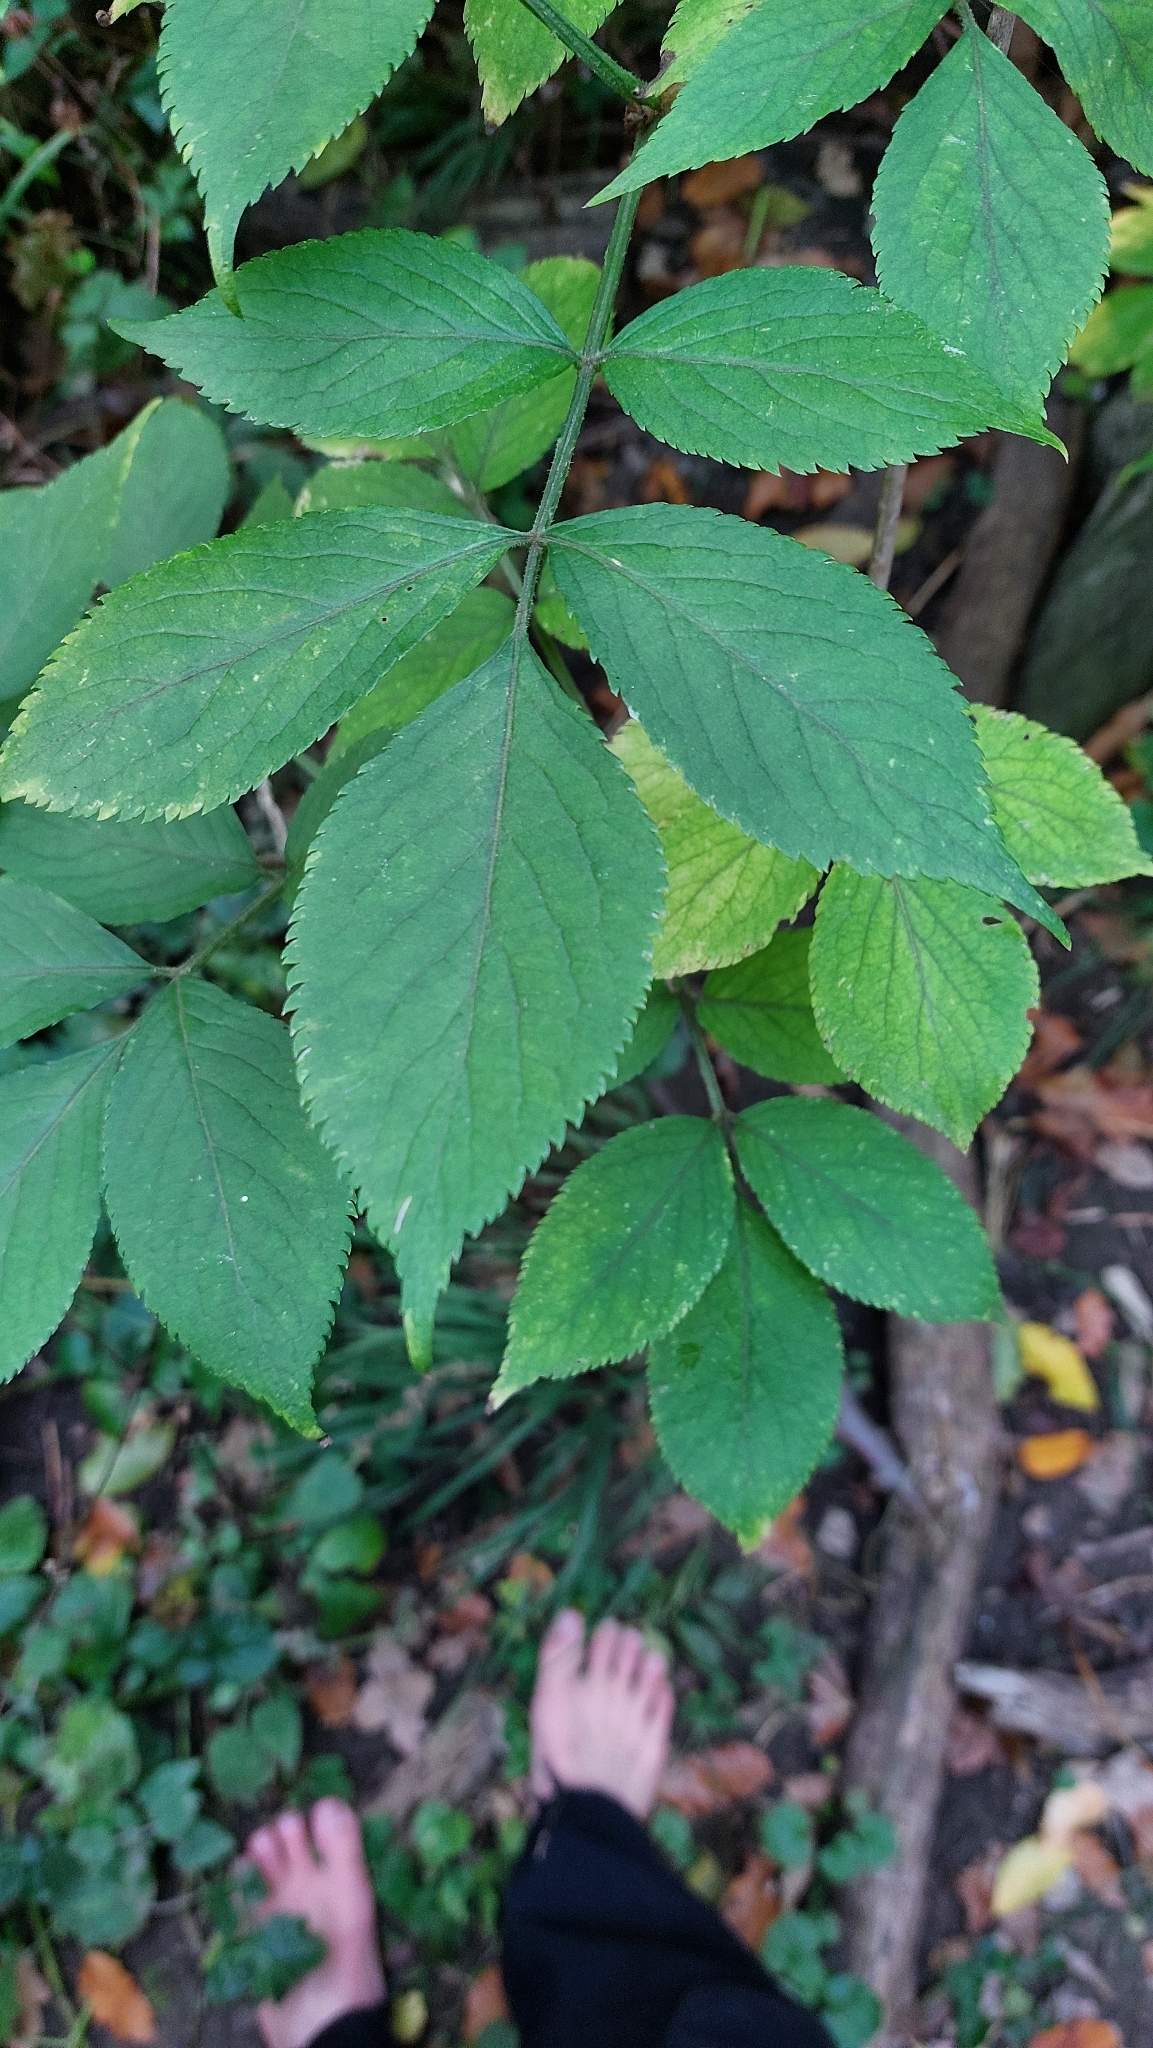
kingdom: Plantae
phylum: Tracheophyta
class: Magnoliopsida
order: Dipsacales
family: Viburnaceae
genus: Sambucus
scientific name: Sambucus nigra
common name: Elder
